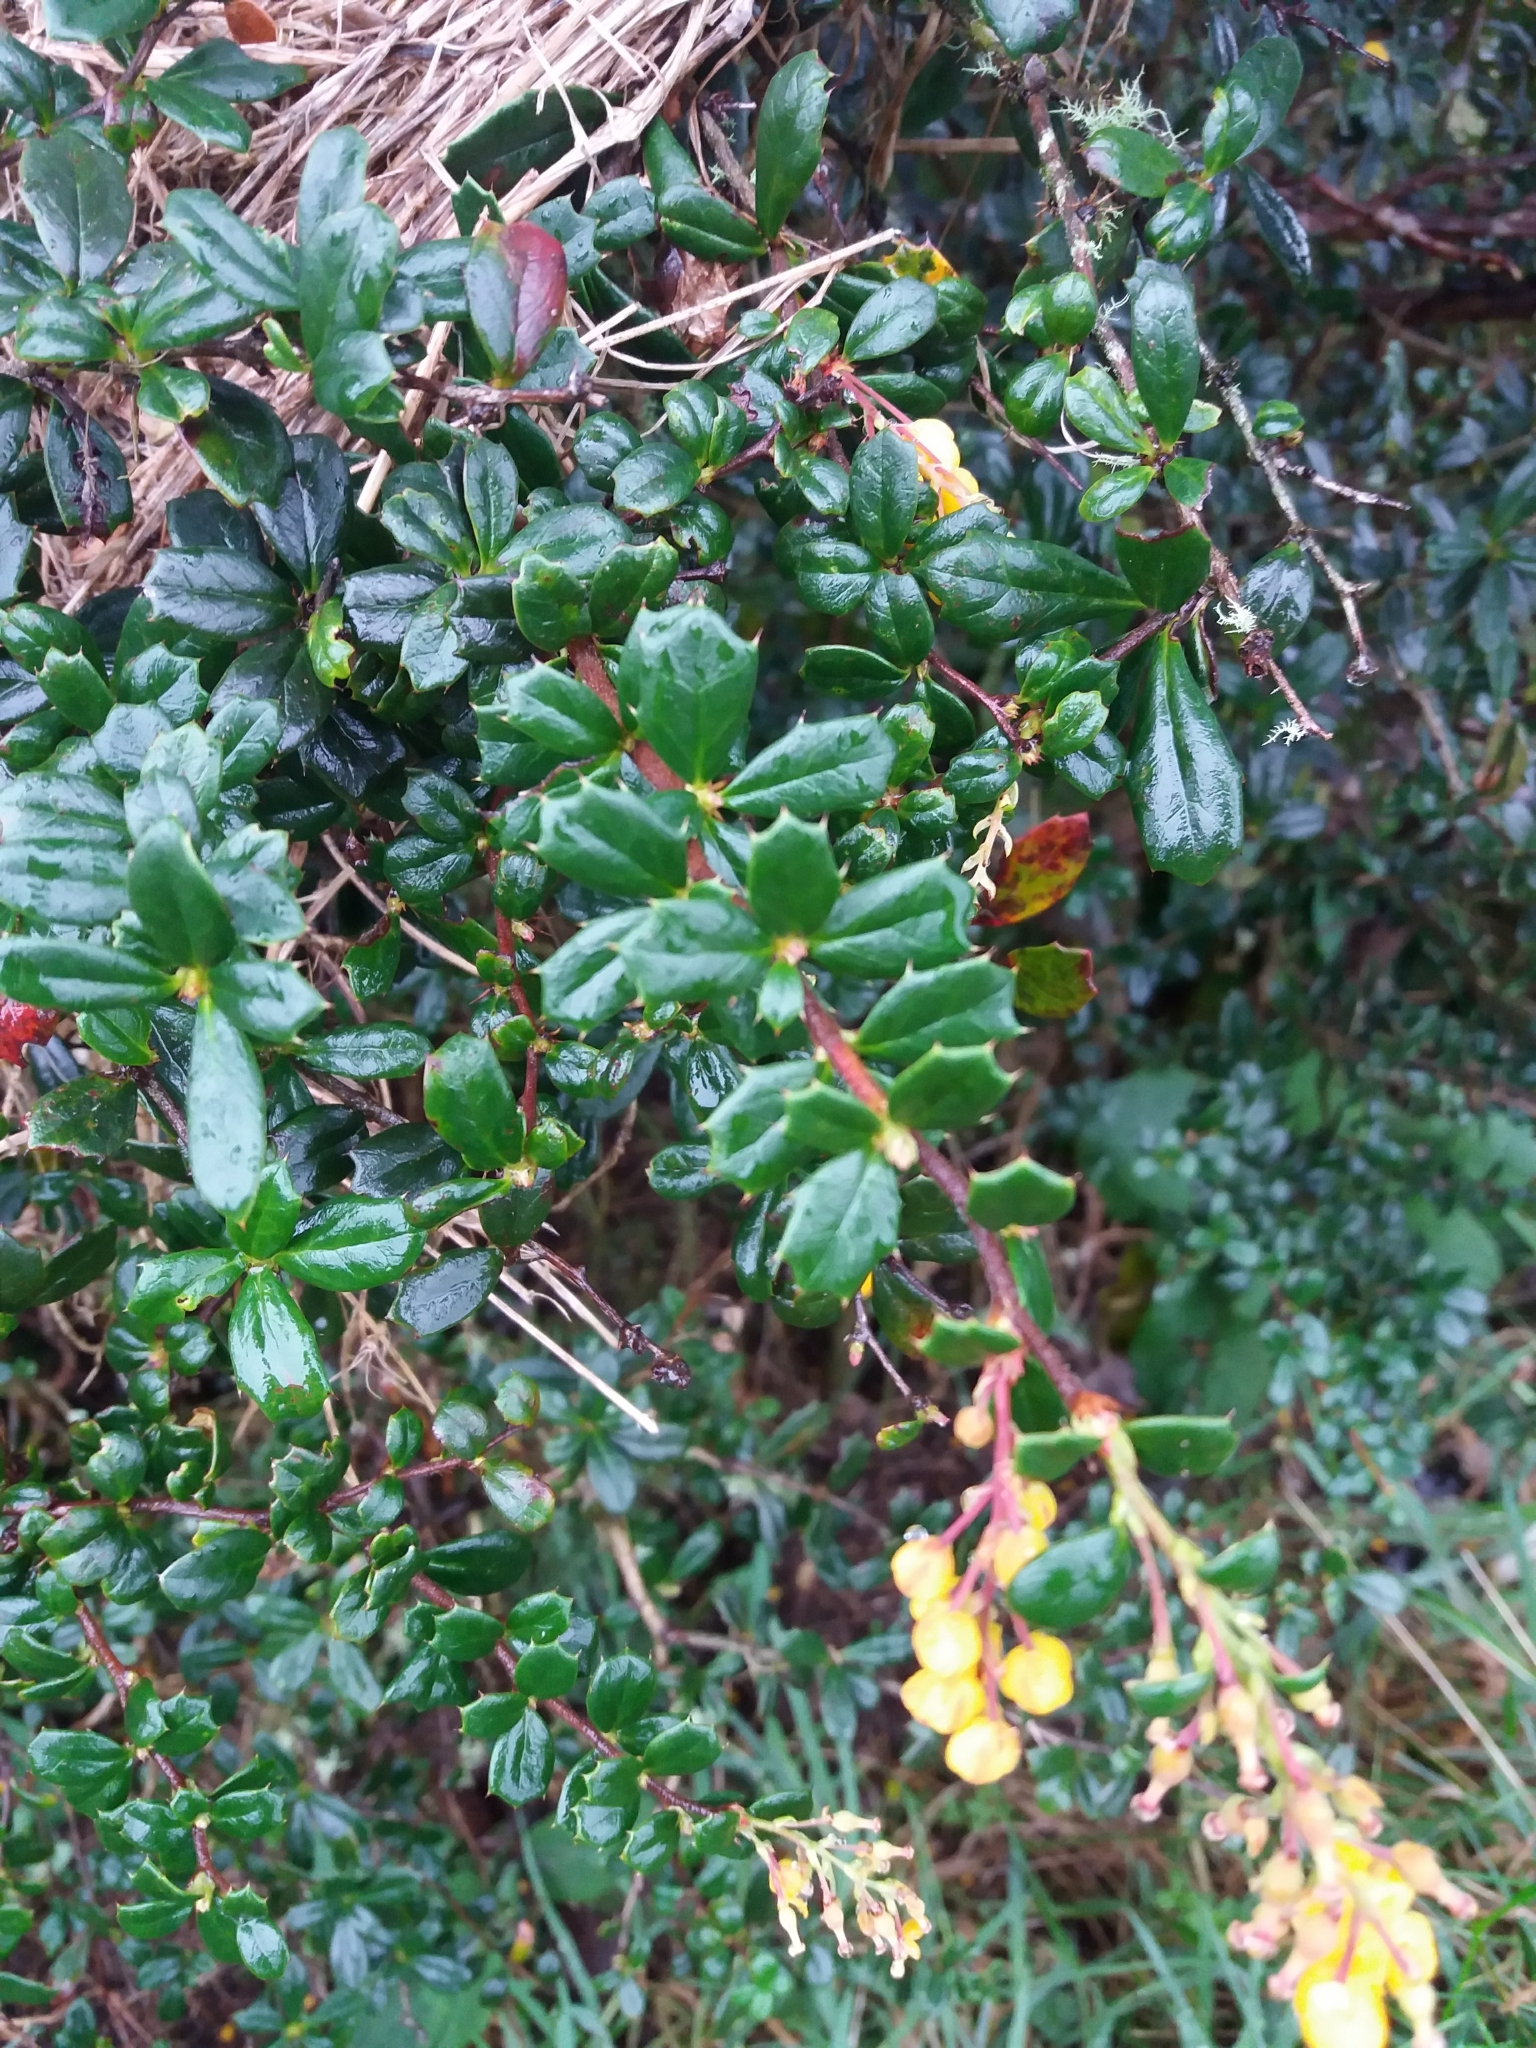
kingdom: Plantae
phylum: Tracheophyta
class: Magnoliopsida
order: Ranunculales
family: Berberidaceae
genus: Berberis
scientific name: Berberis darwinii
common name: Darwin's barberry
